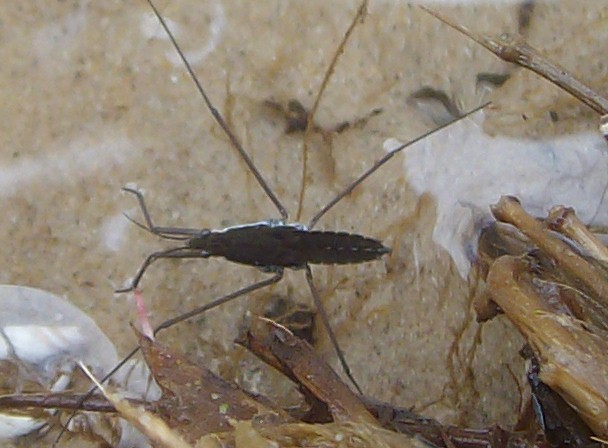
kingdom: Animalia
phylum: Arthropoda
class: Insecta
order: Hemiptera
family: Gerridae
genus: Aquarius
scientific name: Aquarius remigis
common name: Common water strider
